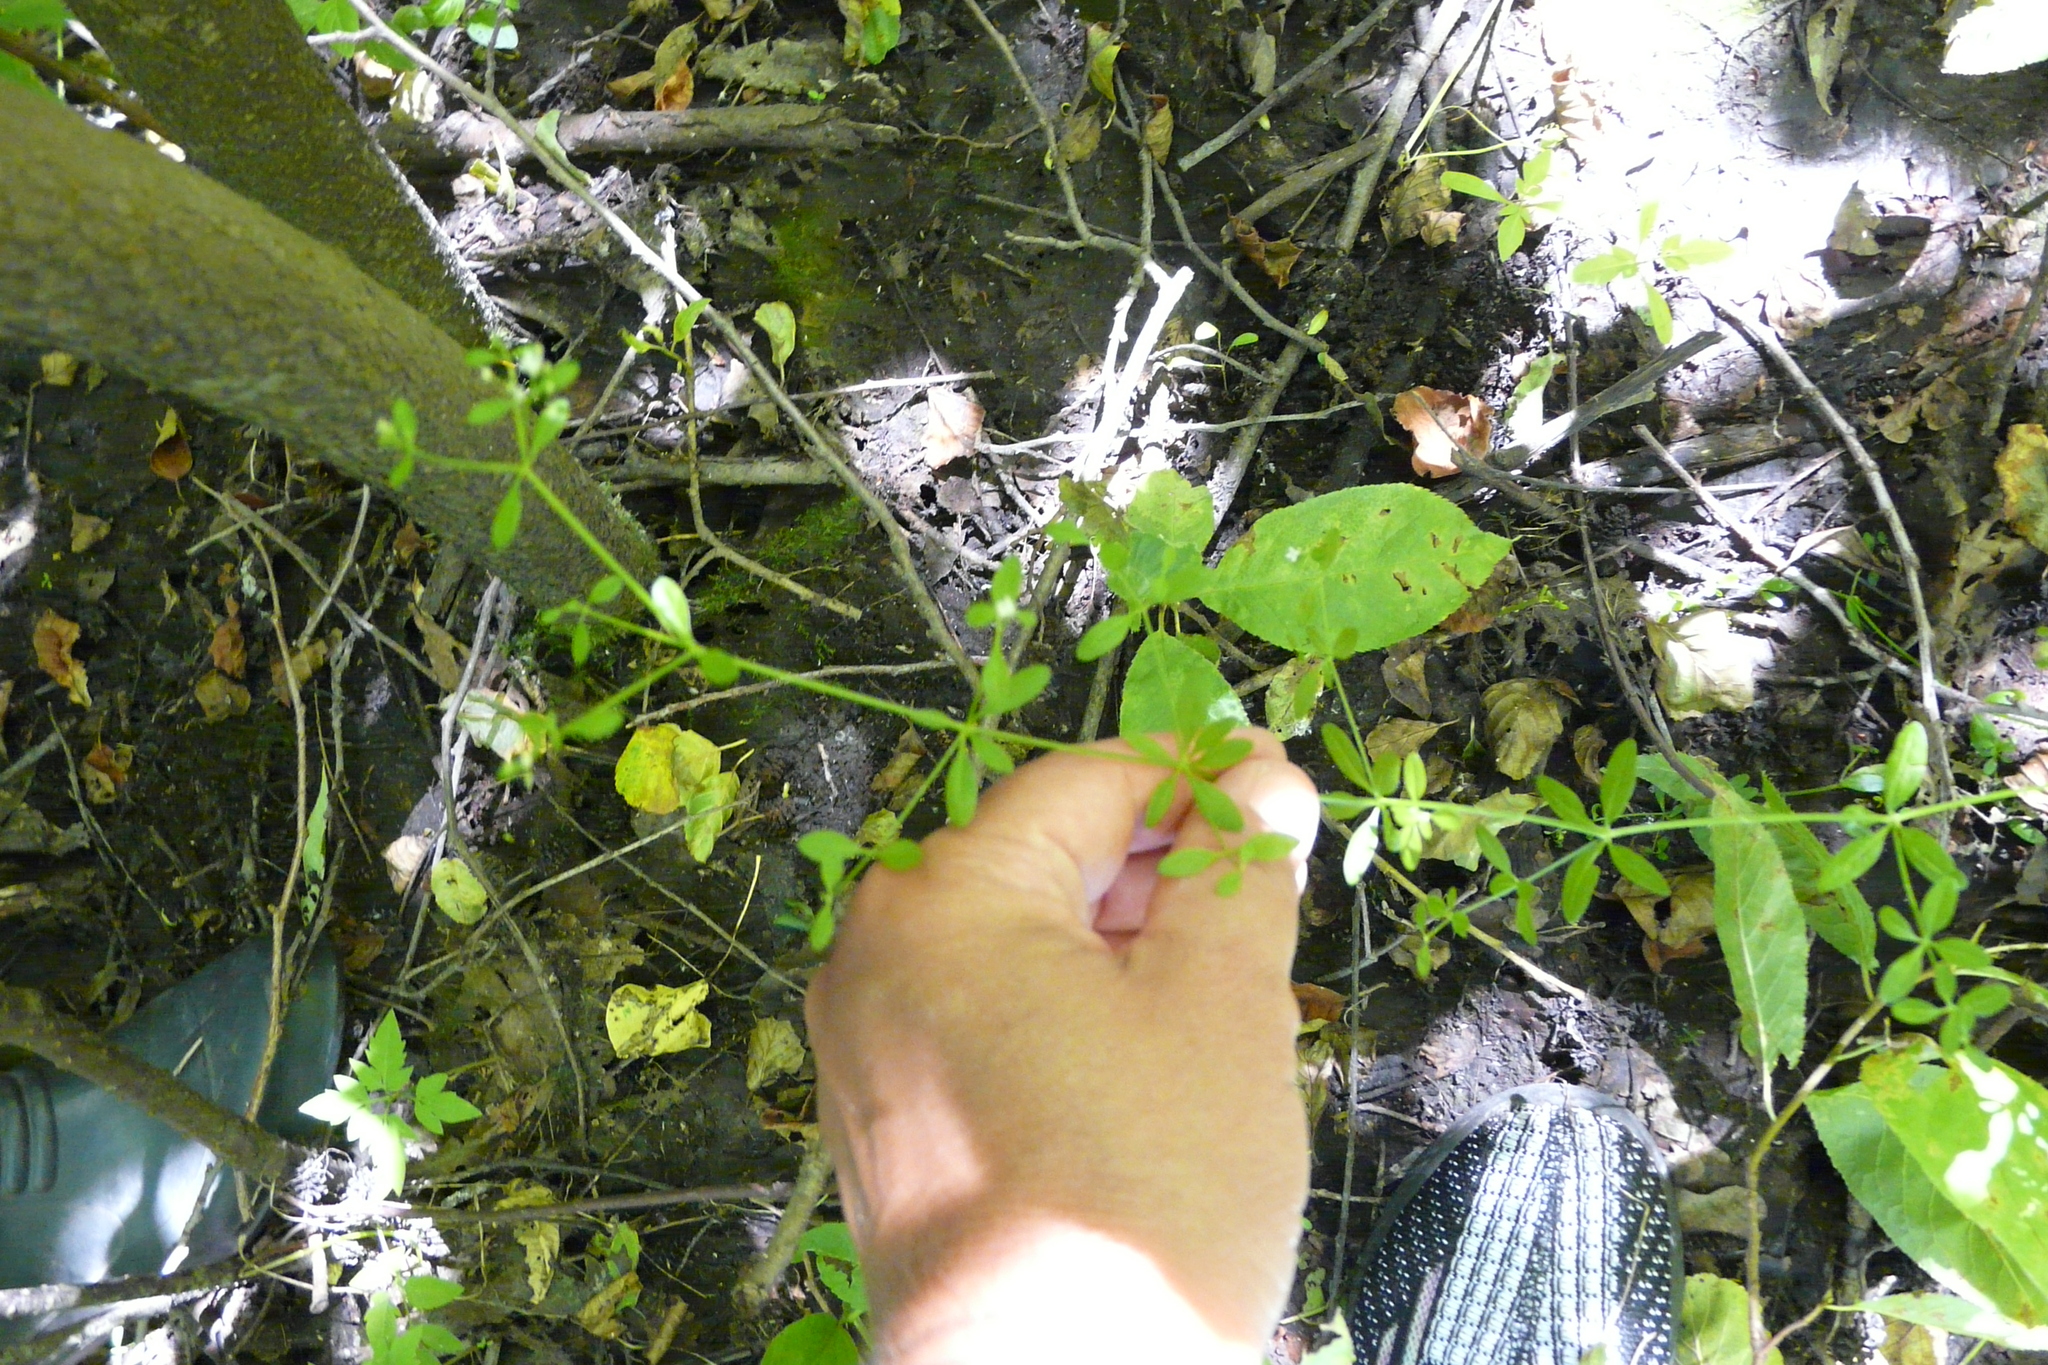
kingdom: Plantae
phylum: Tracheophyta
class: Magnoliopsida
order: Gentianales
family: Rubiaceae
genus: Galium
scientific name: Galium palustre
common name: Common marsh-bedstraw
